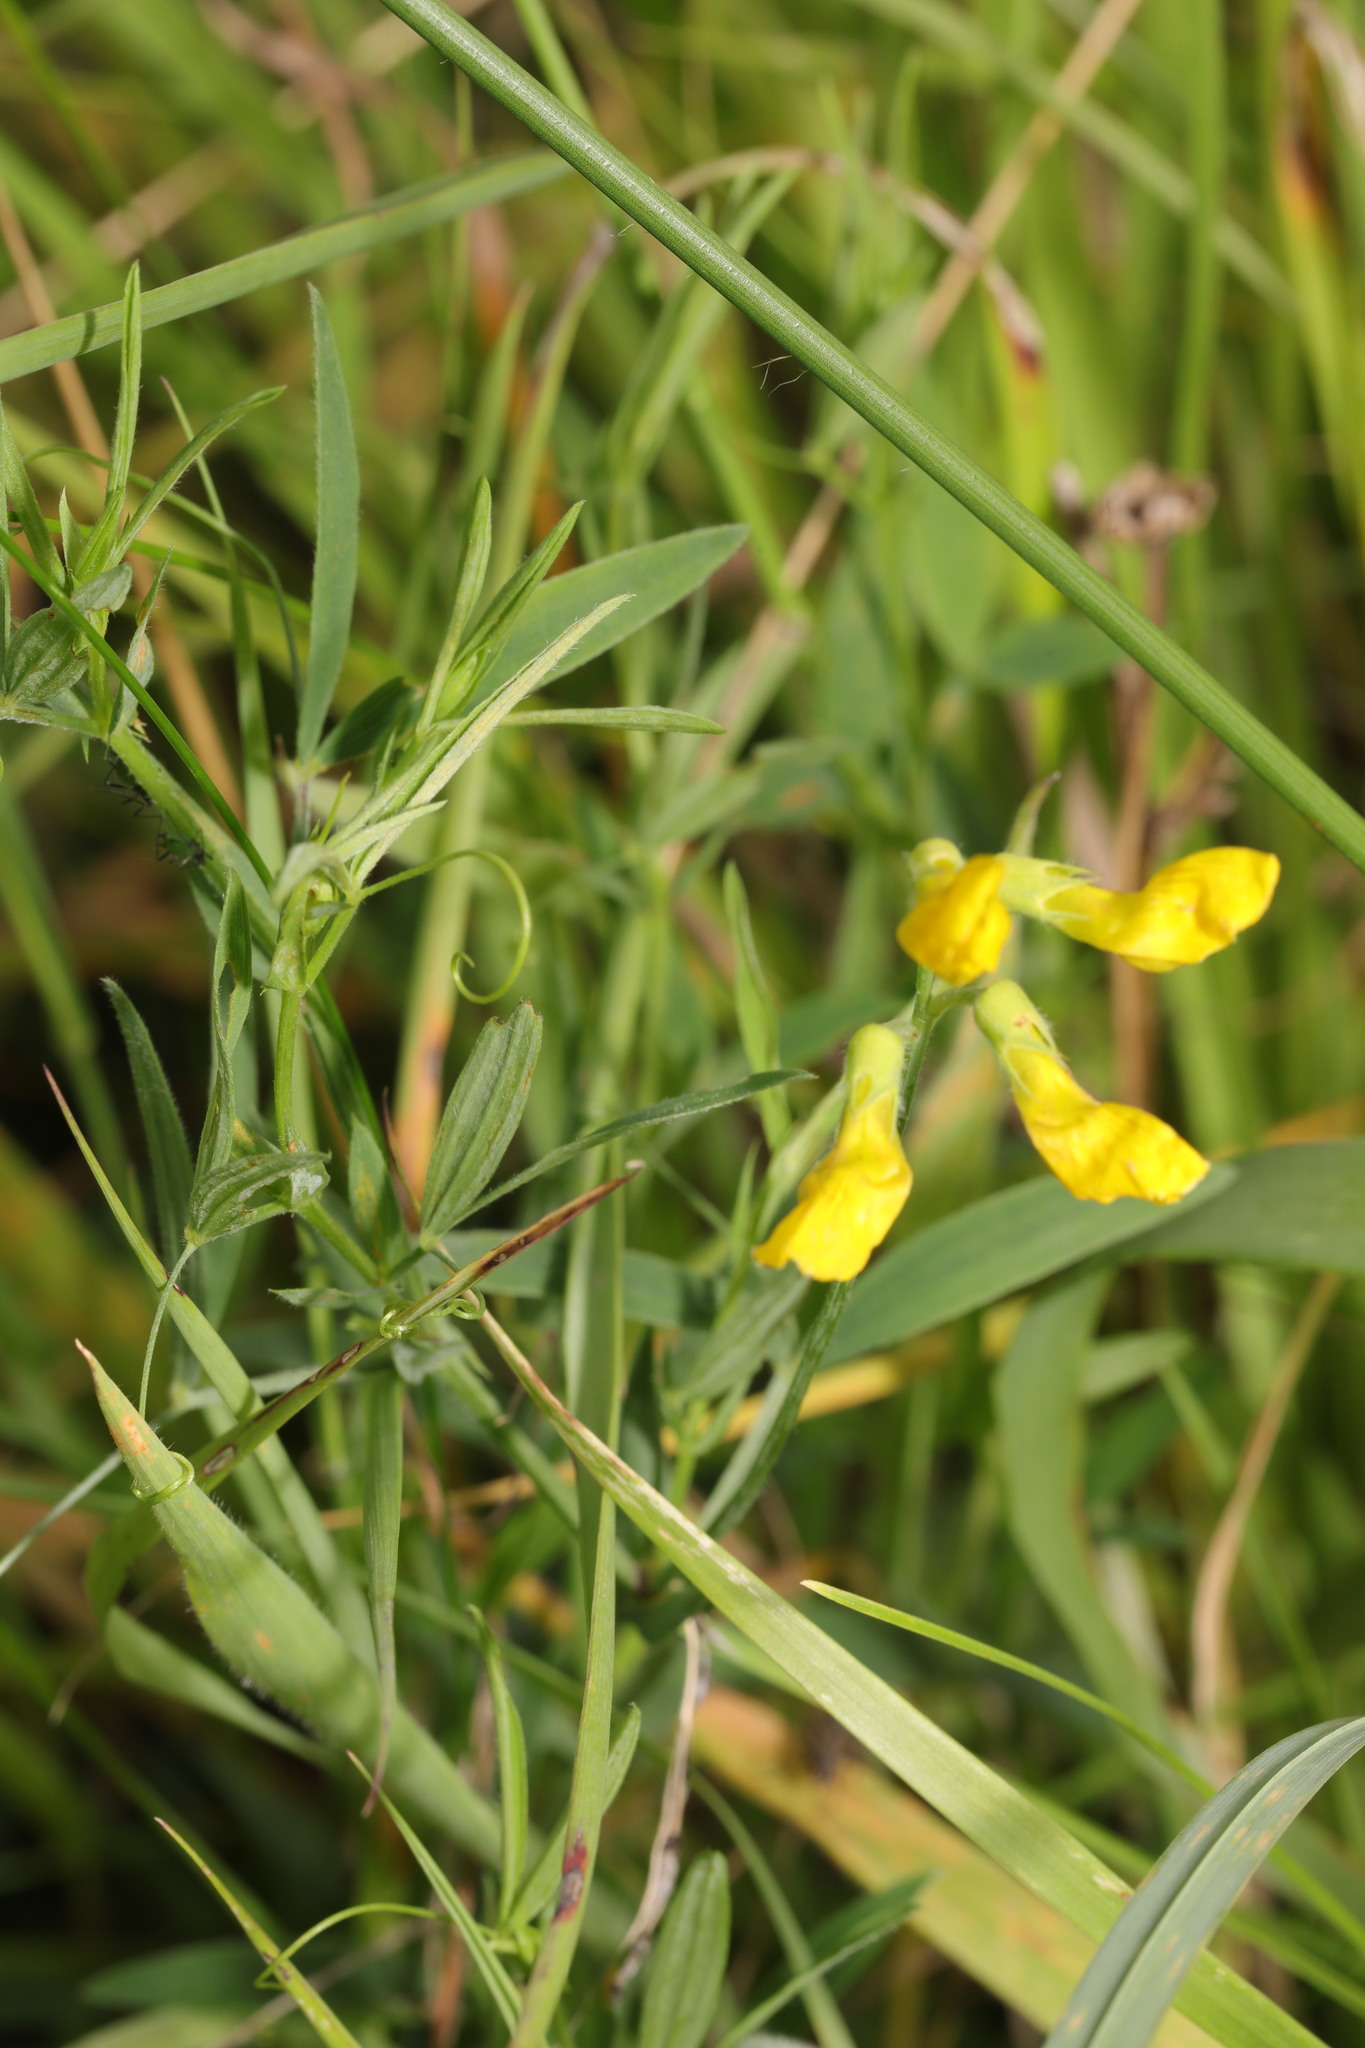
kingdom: Plantae
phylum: Tracheophyta
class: Magnoliopsida
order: Fabales
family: Fabaceae
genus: Lathyrus
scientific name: Lathyrus pratensis
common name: Meadow vetchling
